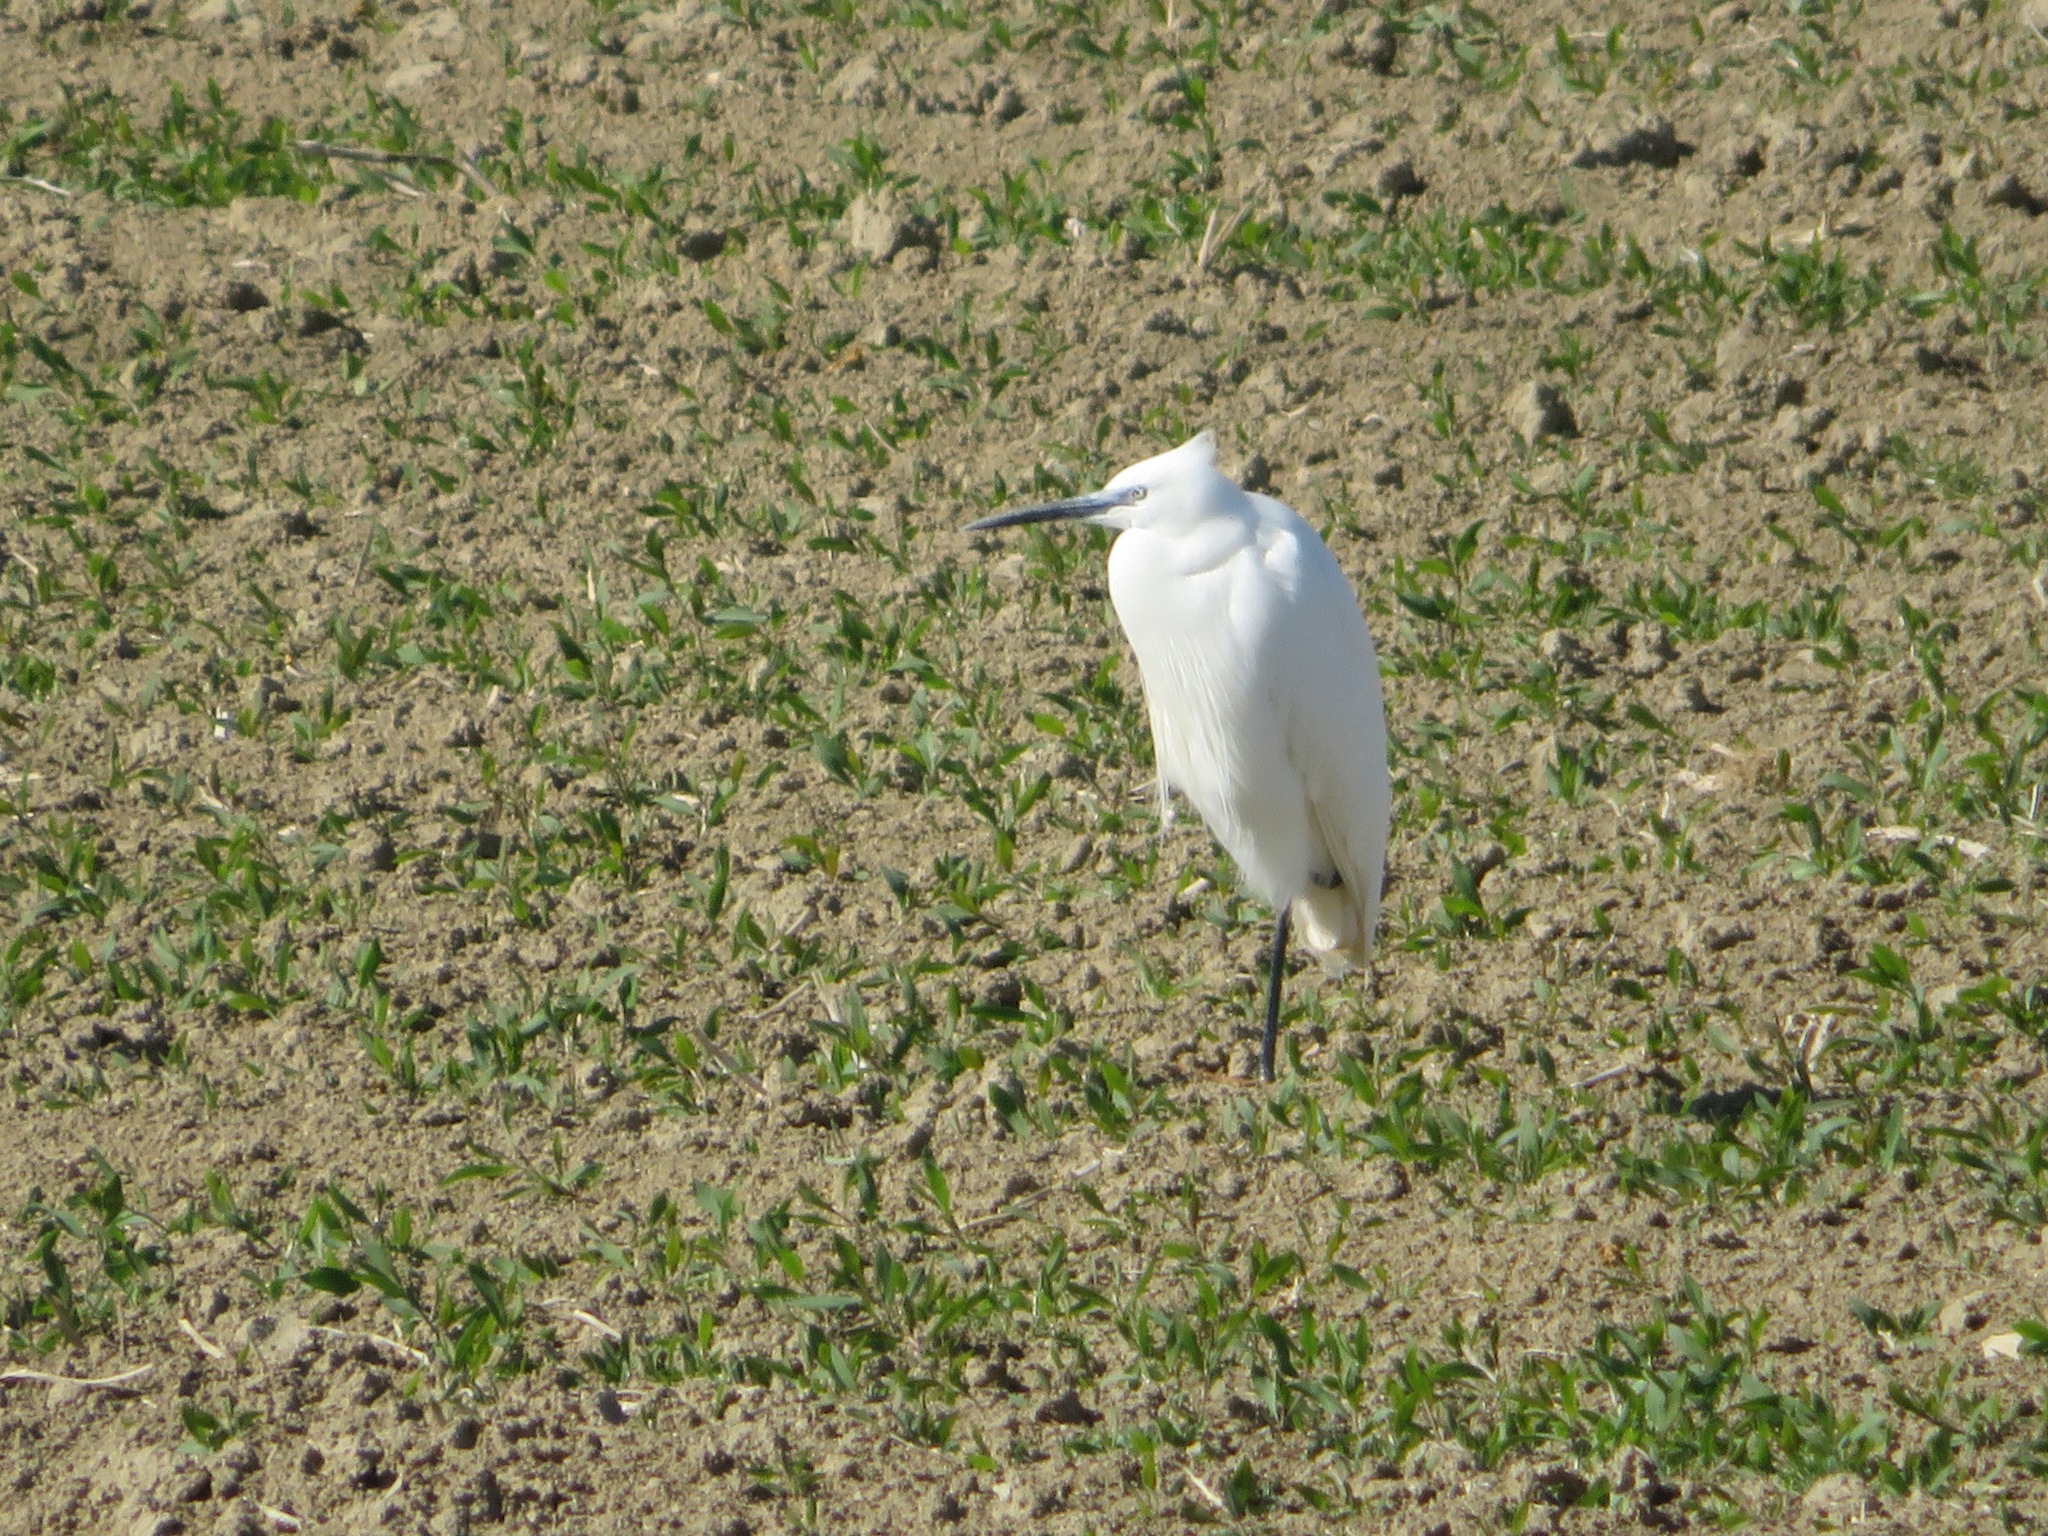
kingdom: Animalia
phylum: Chordata
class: Aves
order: Pelecaniformes
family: Ardeidae
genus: Egretta
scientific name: Egretta garzetta
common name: Little egret
